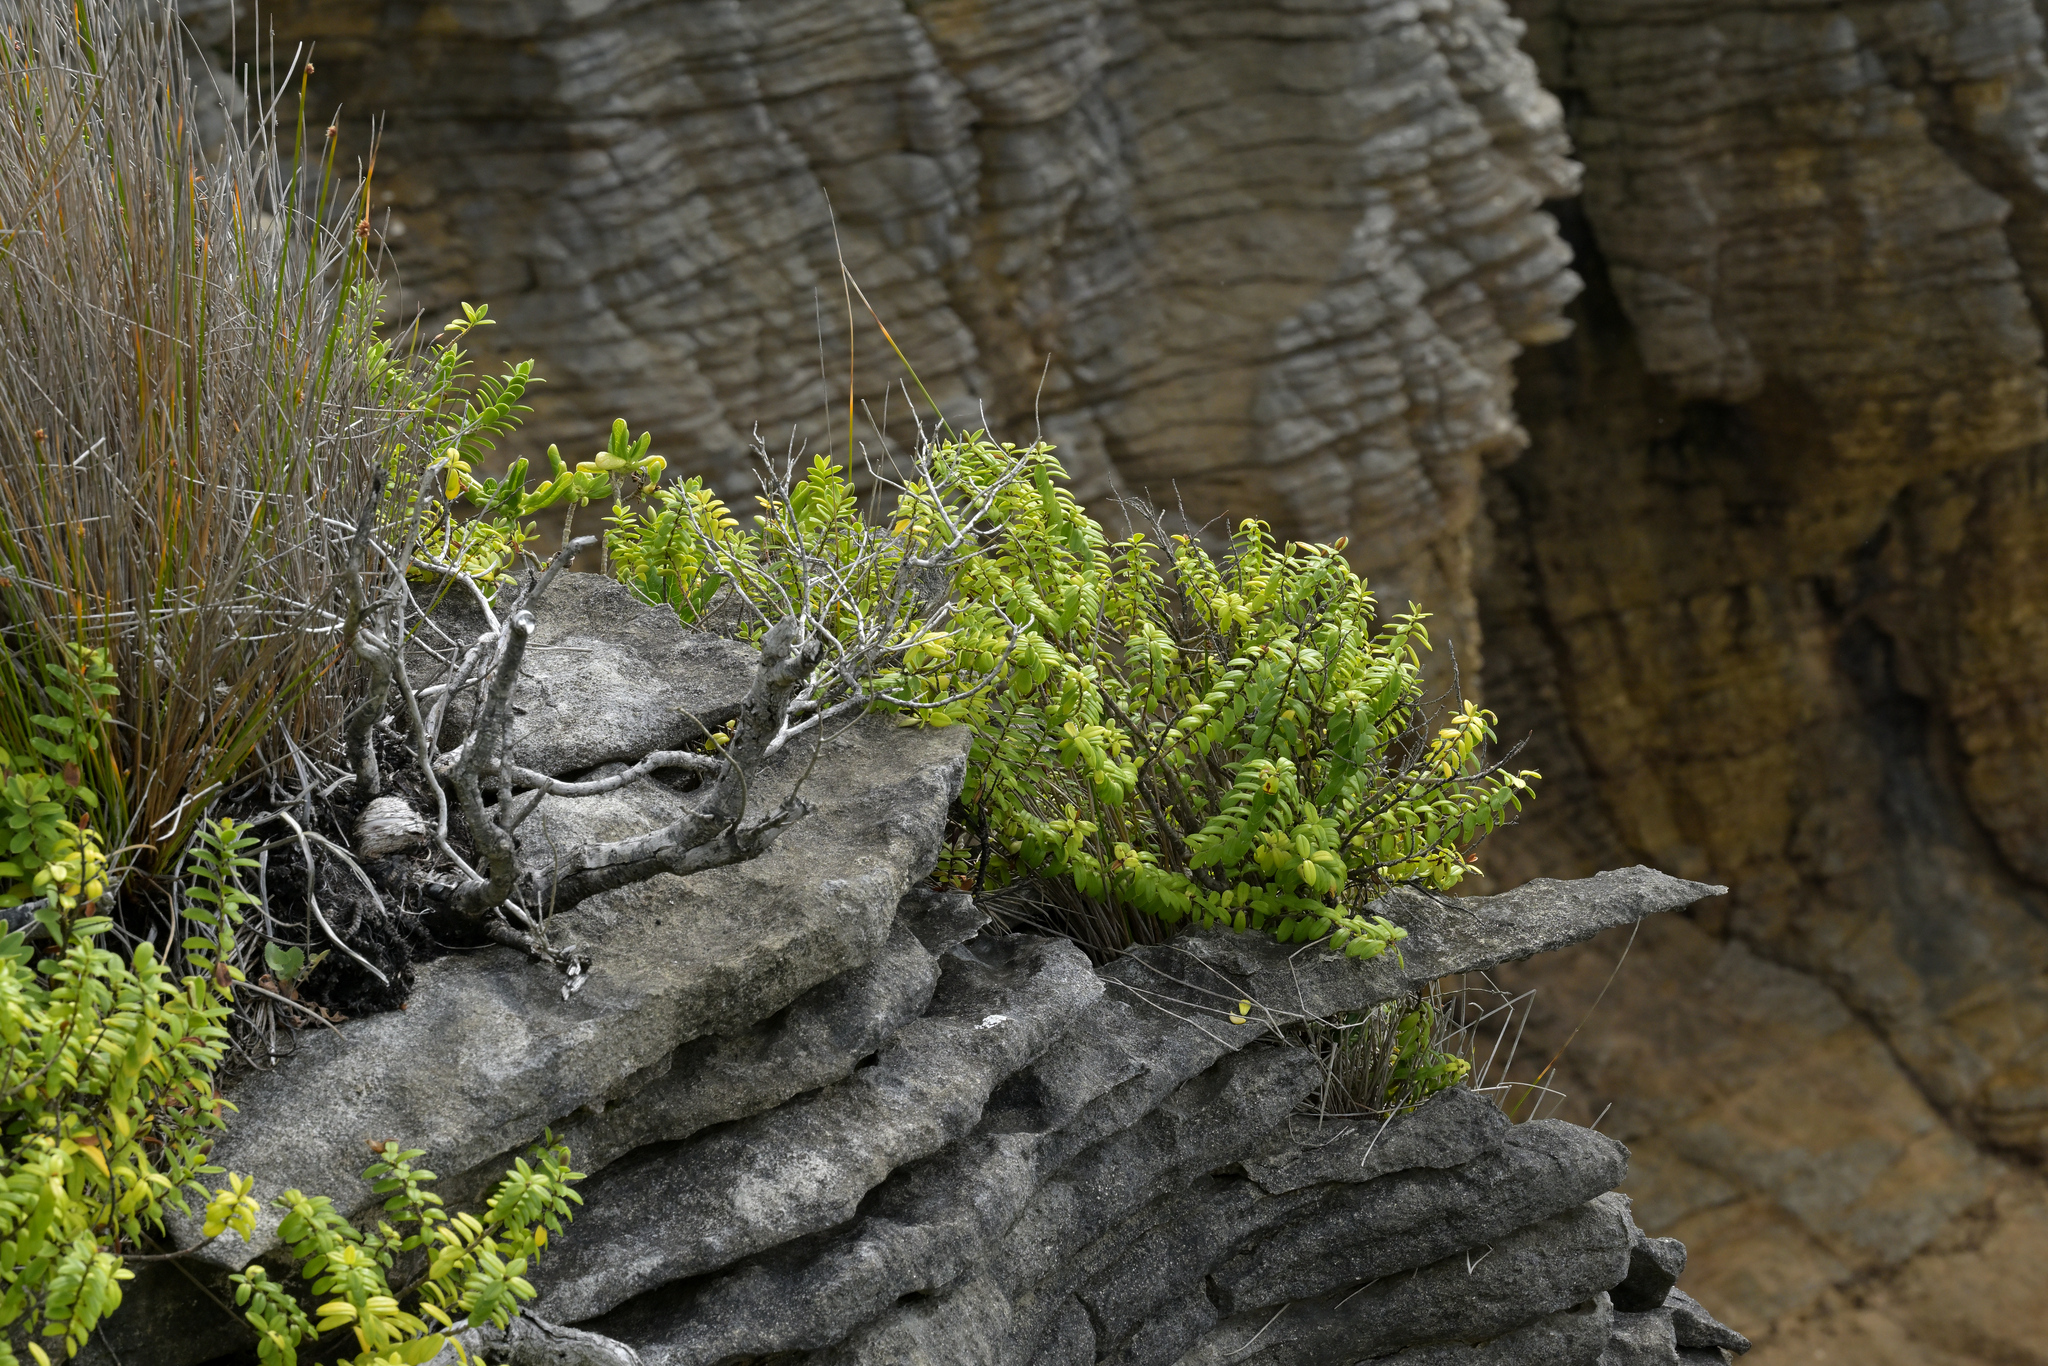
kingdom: Plantae
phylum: Tracheophyta
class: Magnoliopsida
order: Lamiales
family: Plantaginaceae
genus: Veronica
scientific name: Veronica elliptica
